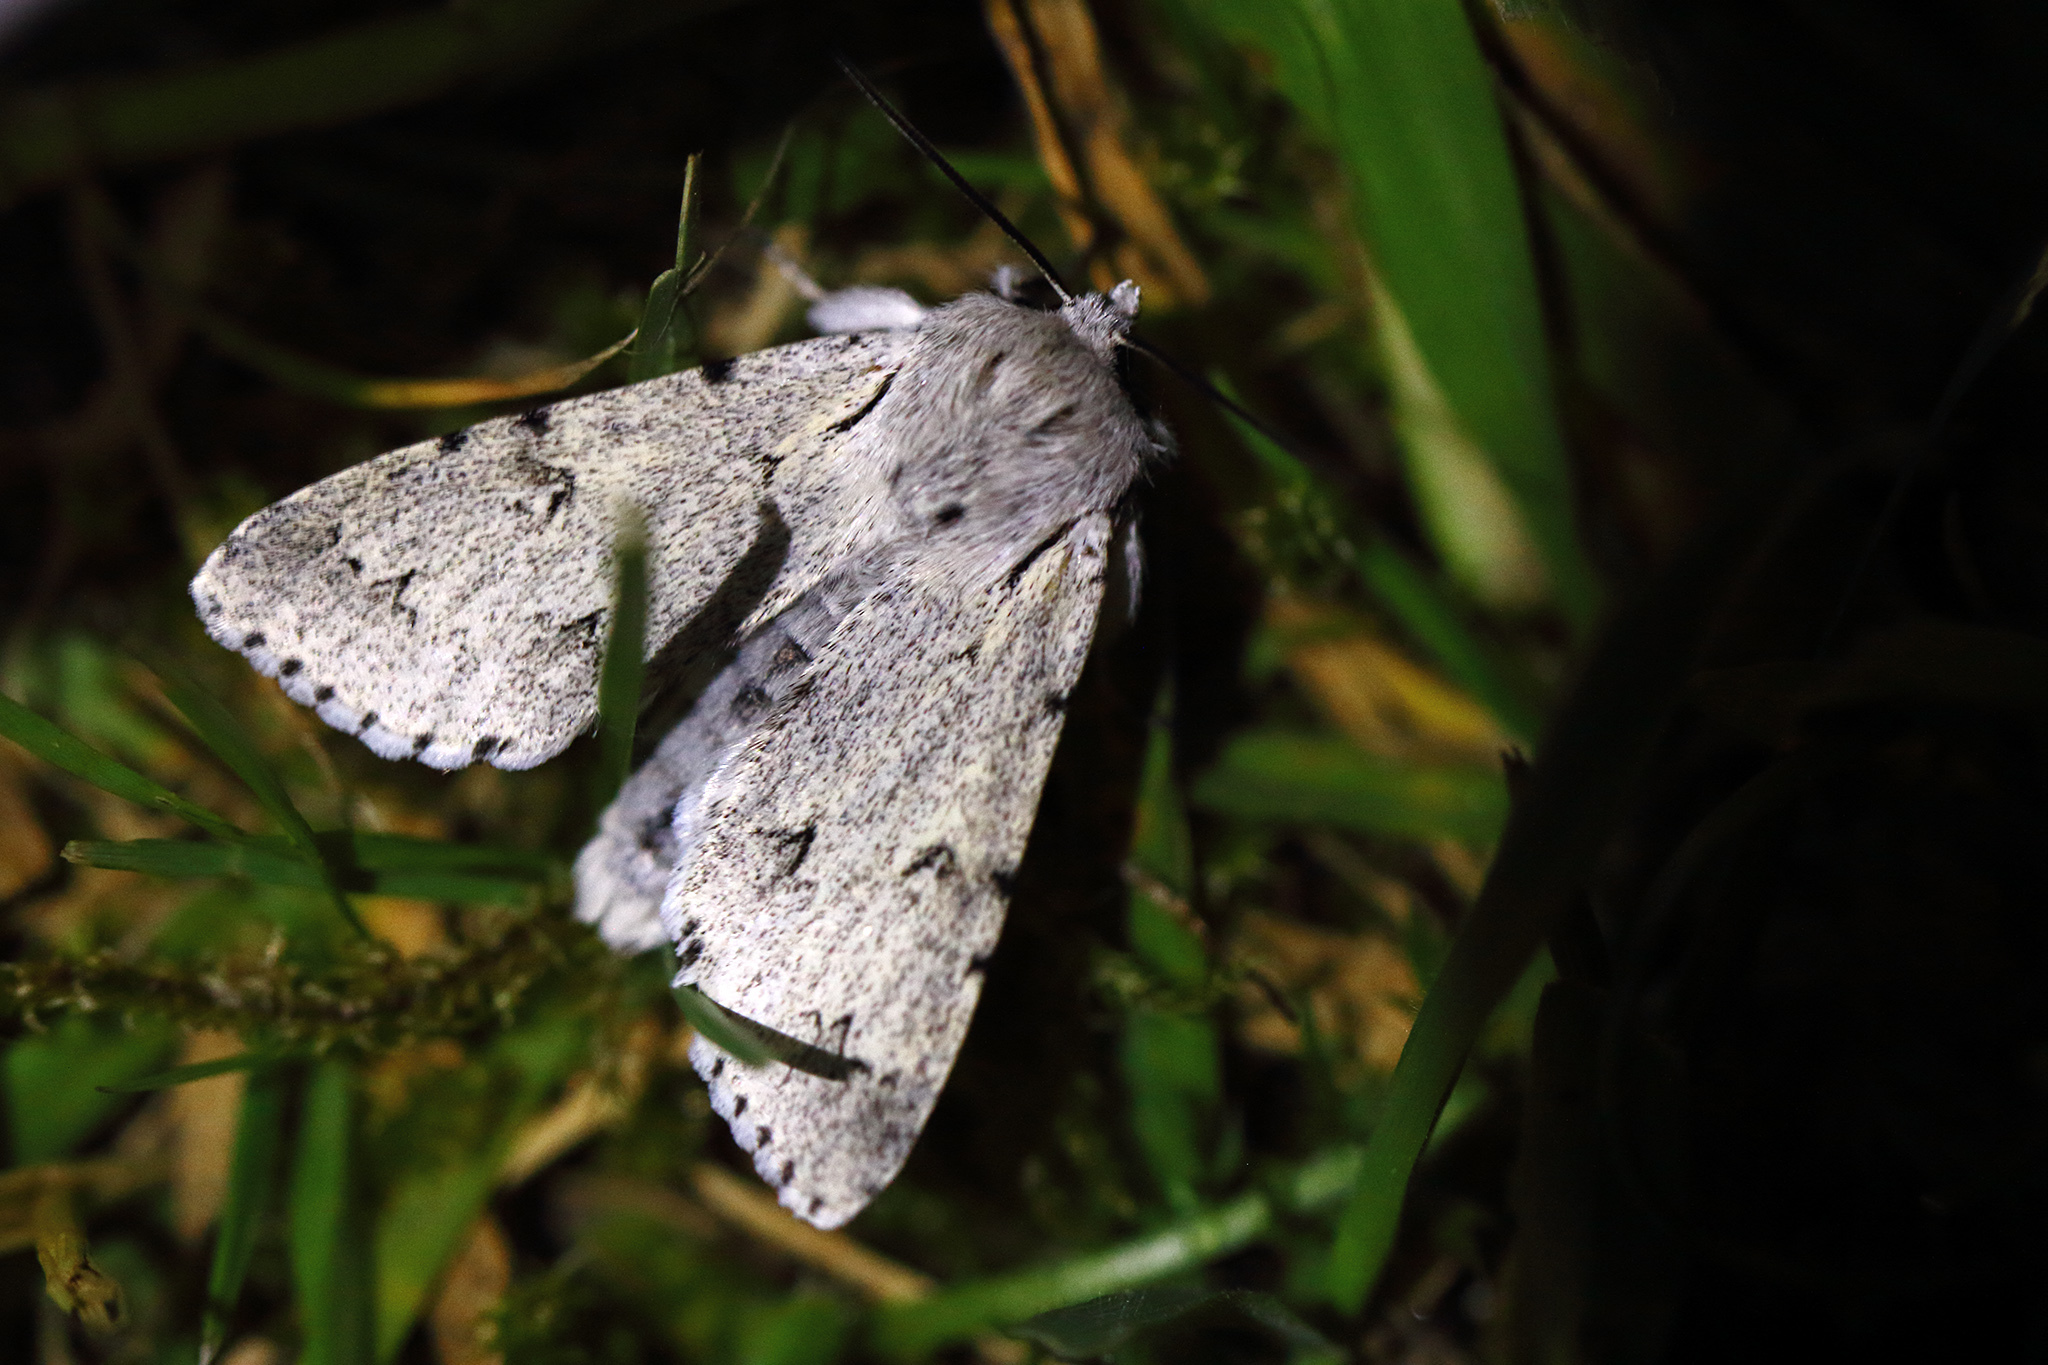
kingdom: Animalia
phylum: Arthropoda
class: Insecta
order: Lepidoptera
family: Noctuidae
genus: Acronicta
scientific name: Acronicta leporina
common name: Miller
